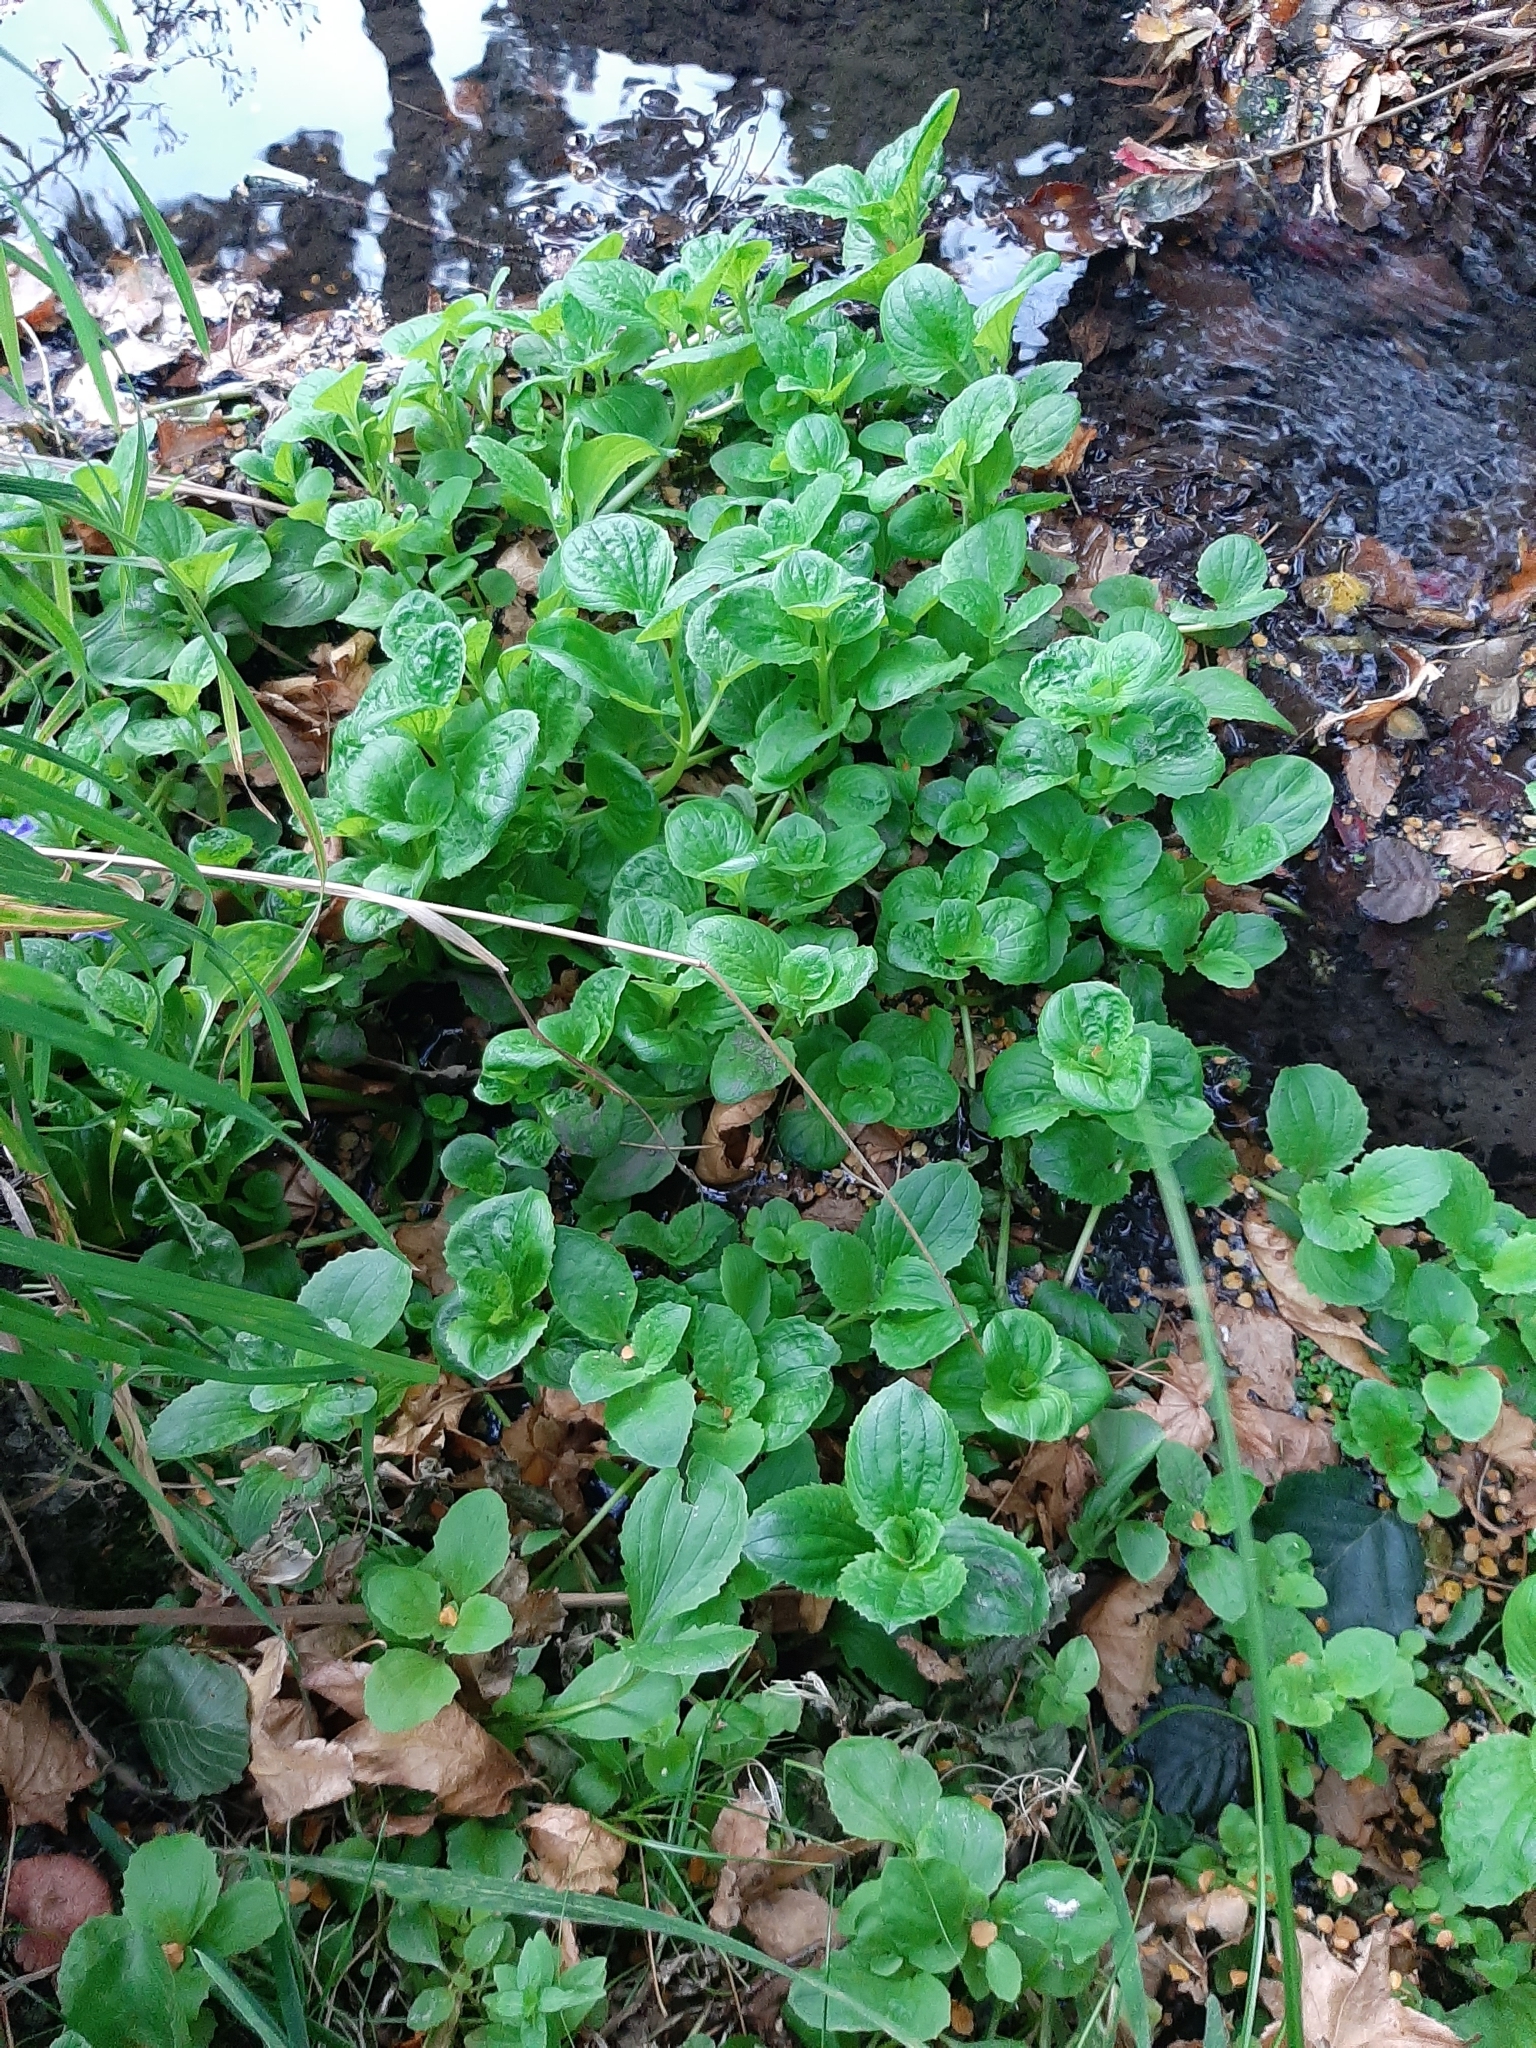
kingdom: Plantae
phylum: Tracheophyta
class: Magnoliopsida
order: Lamiales
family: Phrymaceae
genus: Erythranthe
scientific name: Erythranthe guttata
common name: Monkeyflower
